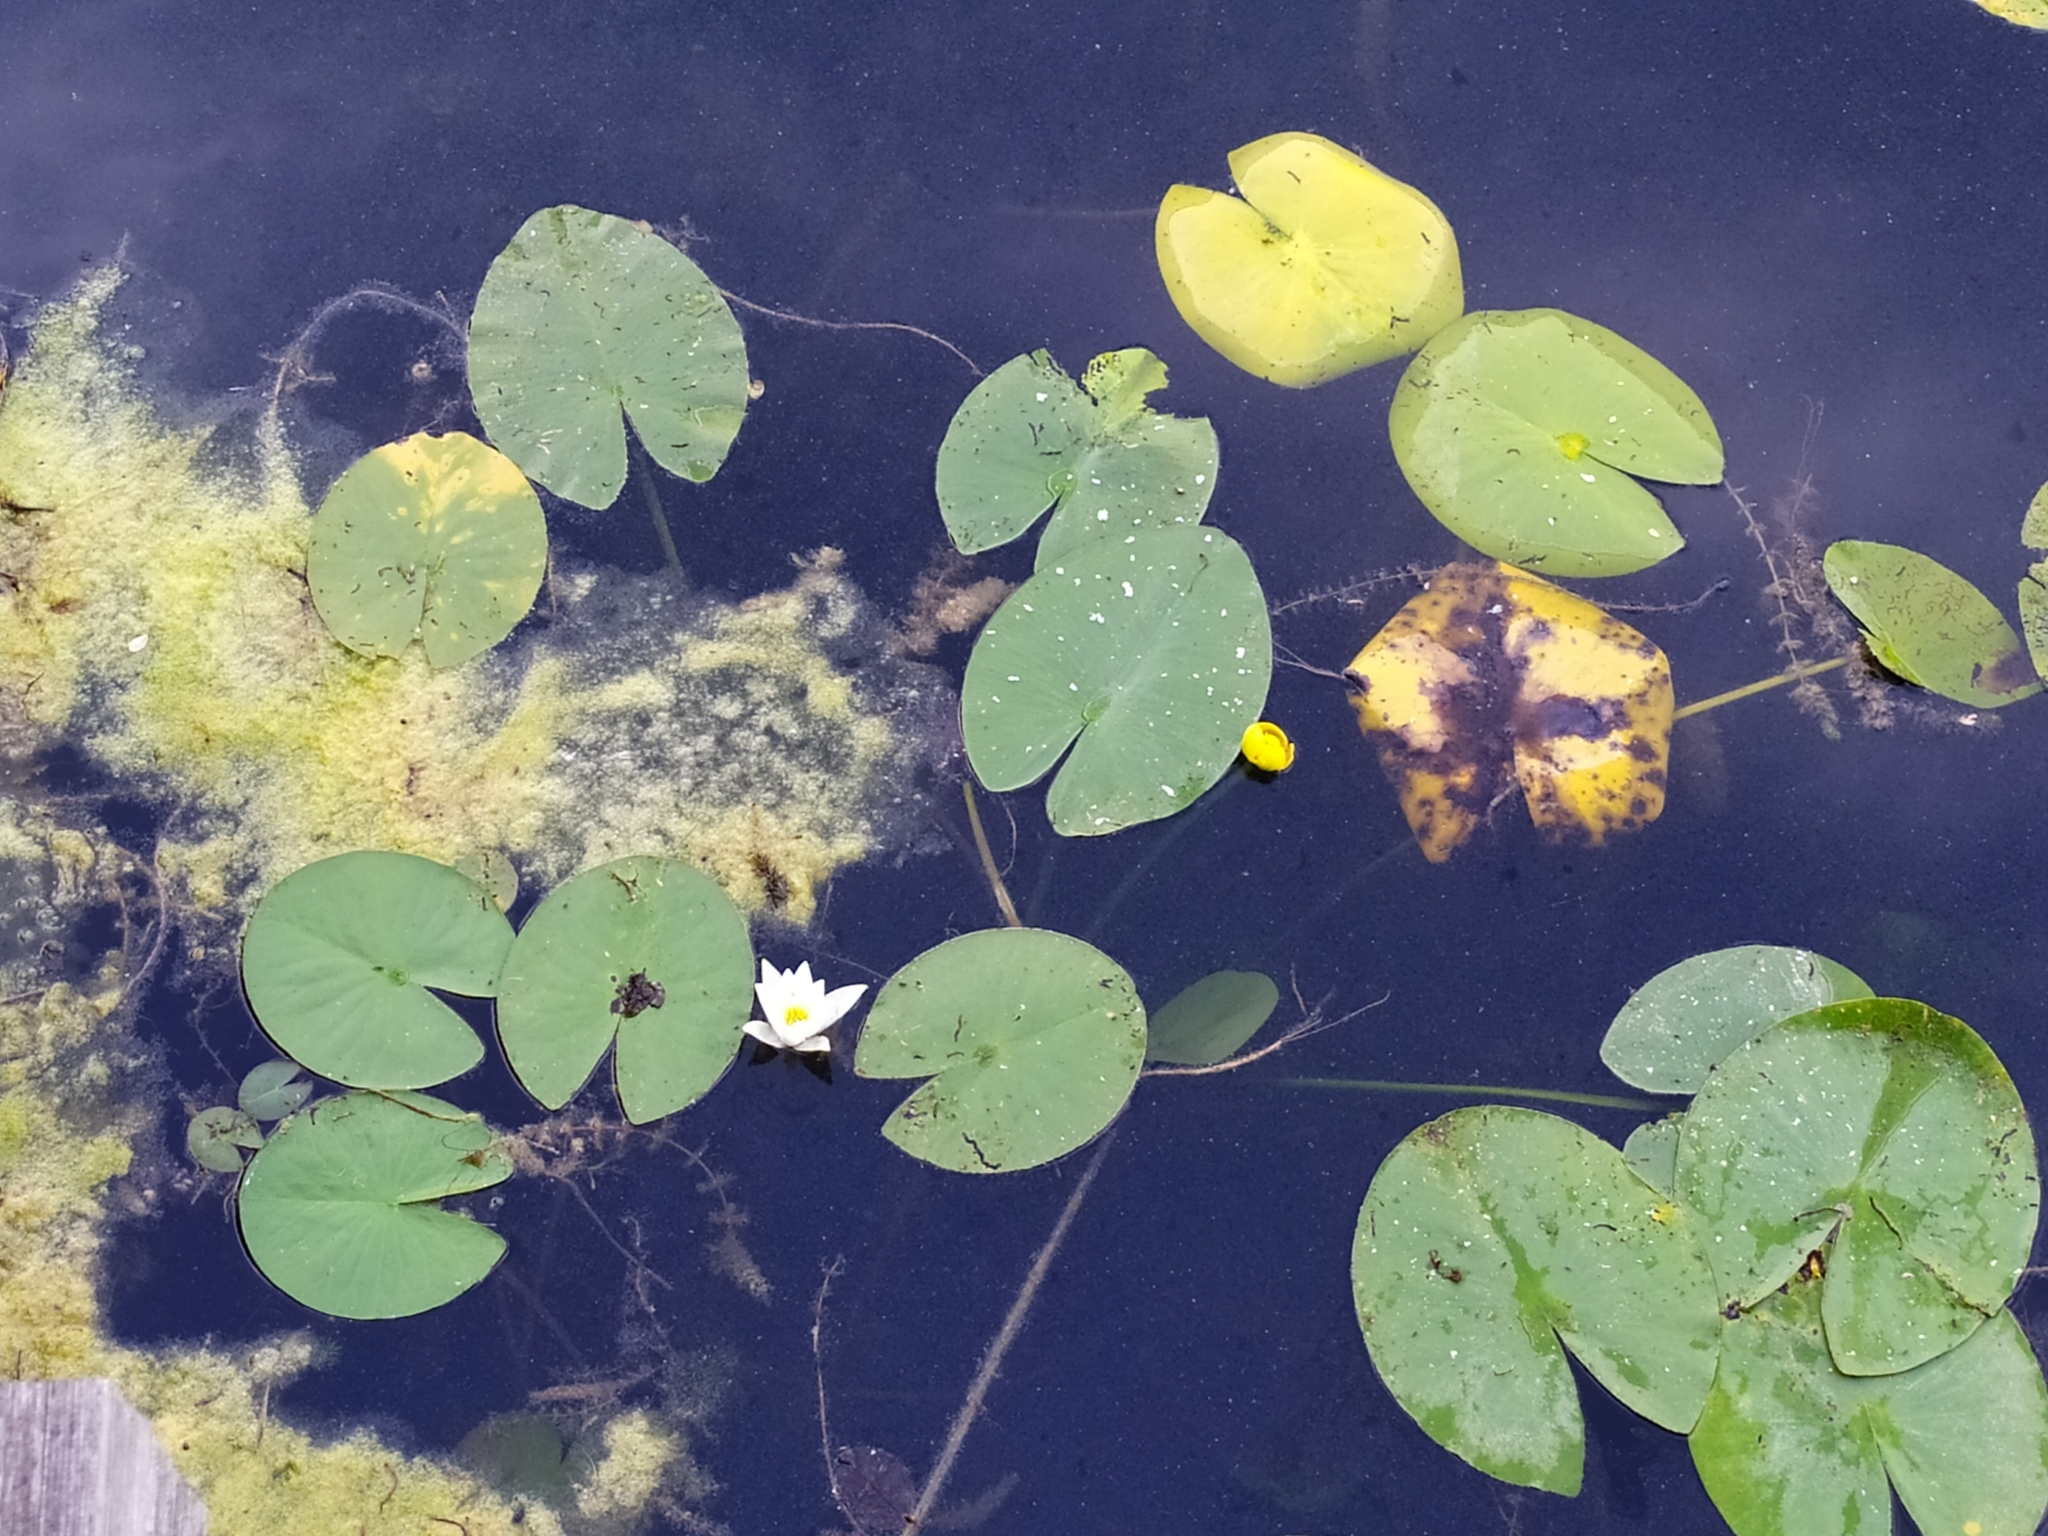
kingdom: Plantae
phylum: Tracheophyta
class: Magnoliopsida
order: Nymphaeales
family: Nymphaeaceae
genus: Nuphar
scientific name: Nuphar lutea
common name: Yellow water-lily
